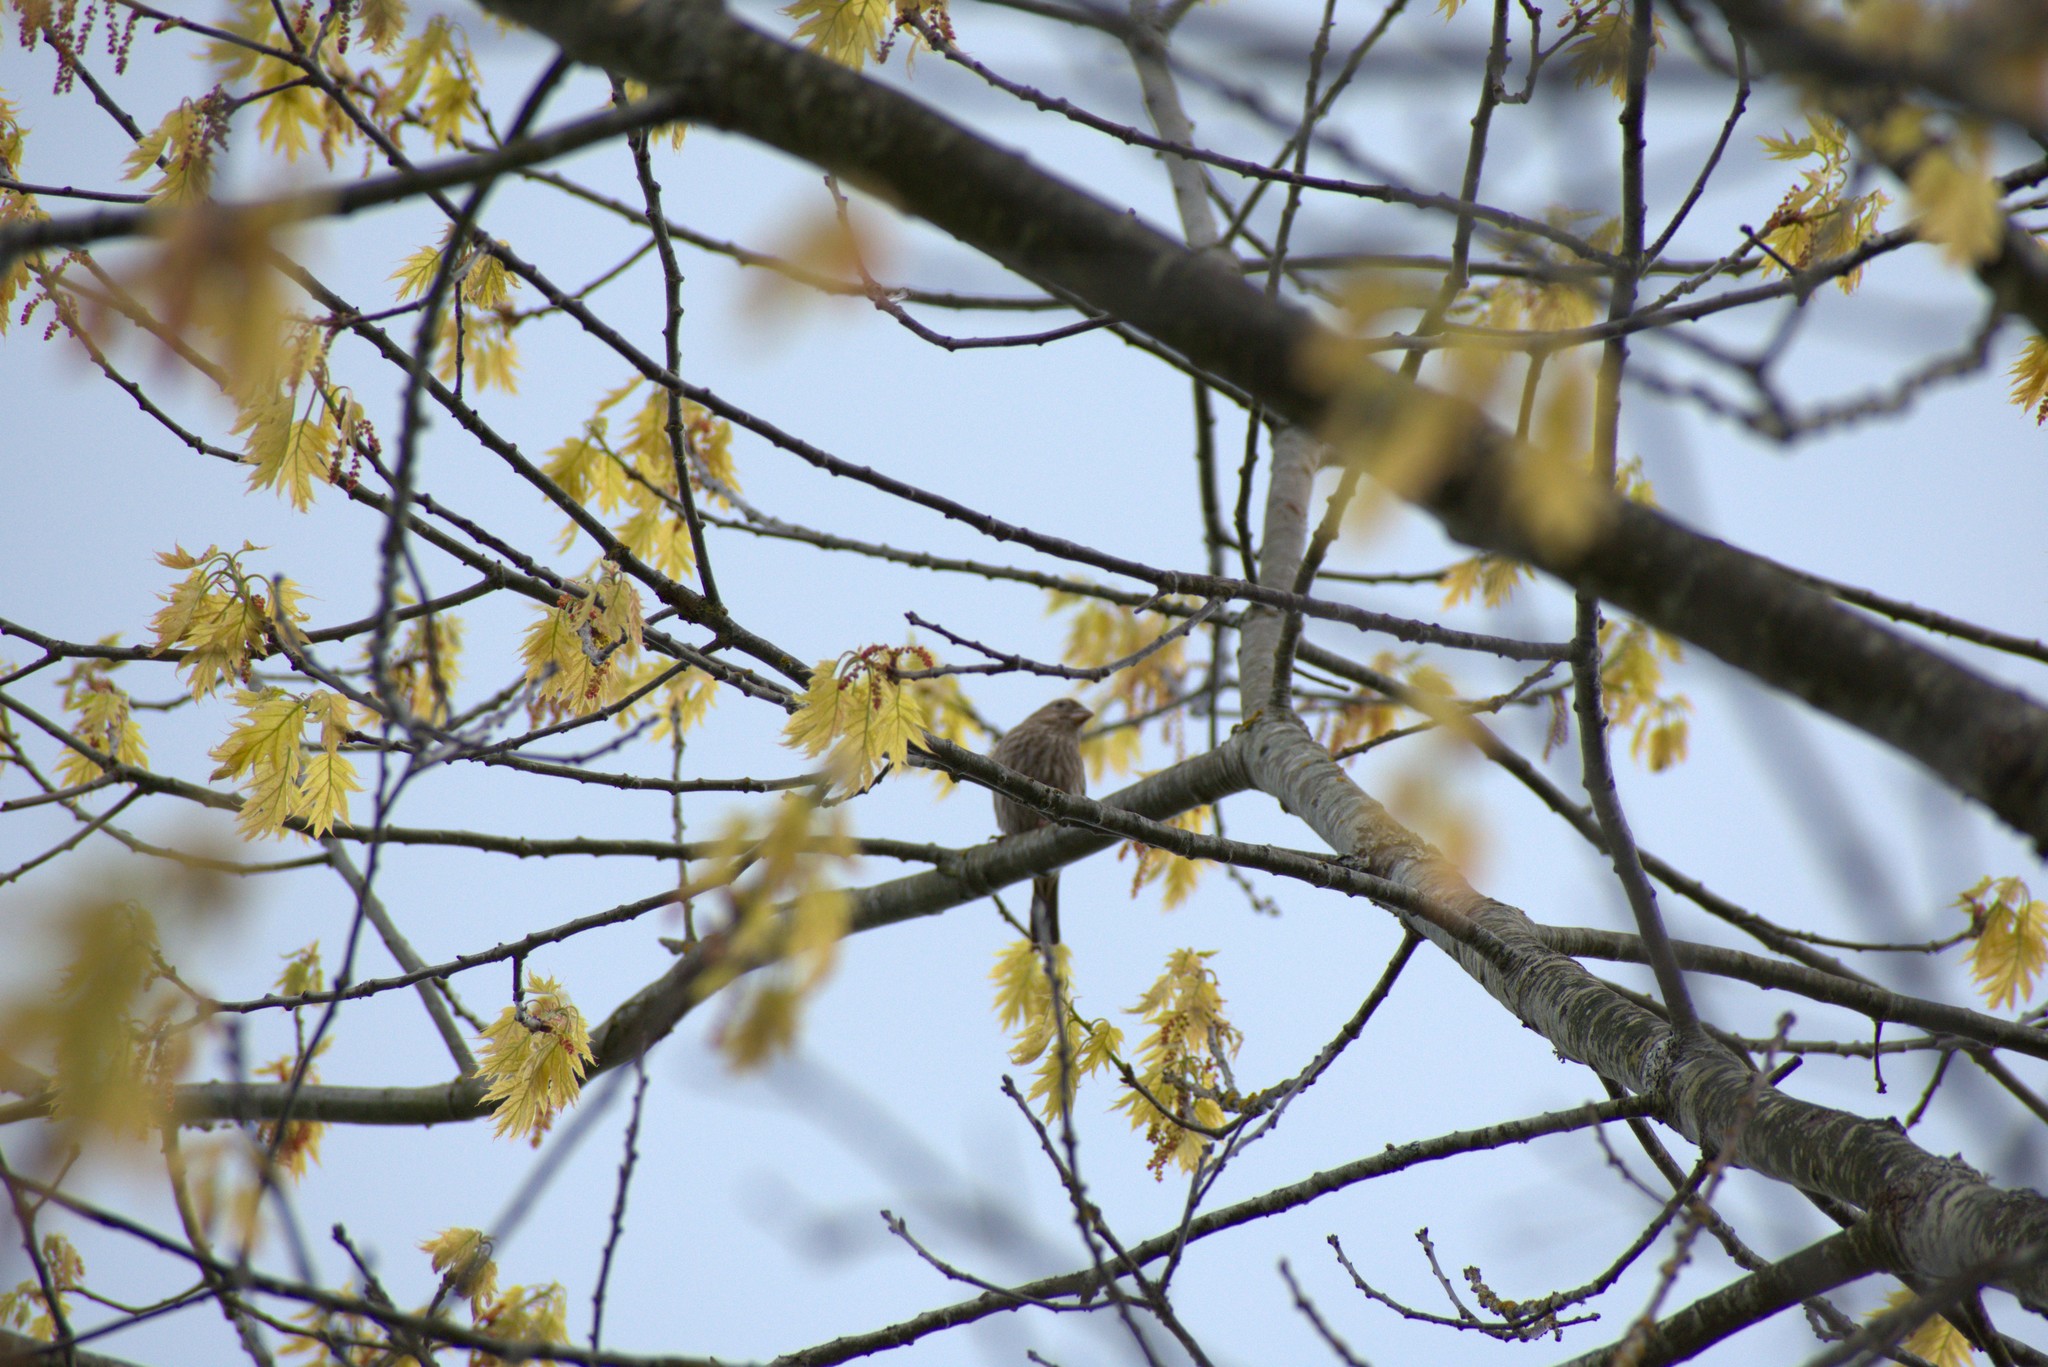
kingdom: Animalia
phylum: Chordata
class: Aves
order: Passeriformes
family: Fringillidae
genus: Haemorhous
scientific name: Haemorhous mexicanus
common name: House finch
